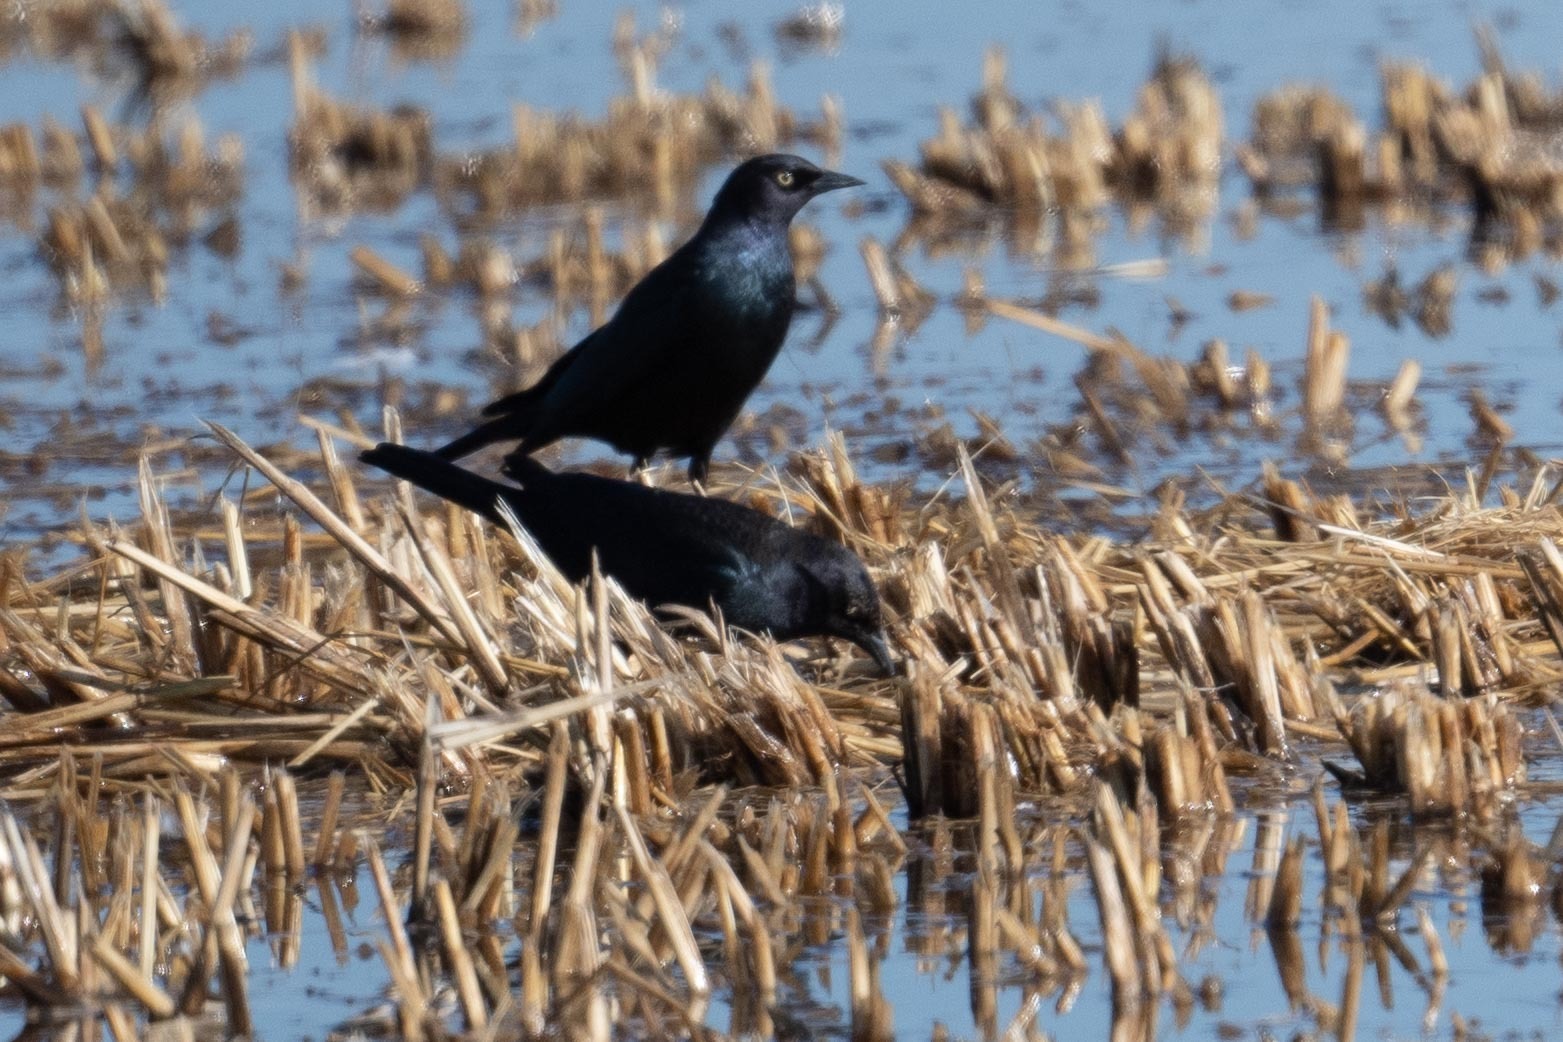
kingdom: Animalia
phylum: Chordata
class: Aves
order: Passeriformes
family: Icteridae
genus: Euphagus
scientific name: Euphagus cyanocephalus
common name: Brewer's blackbird
